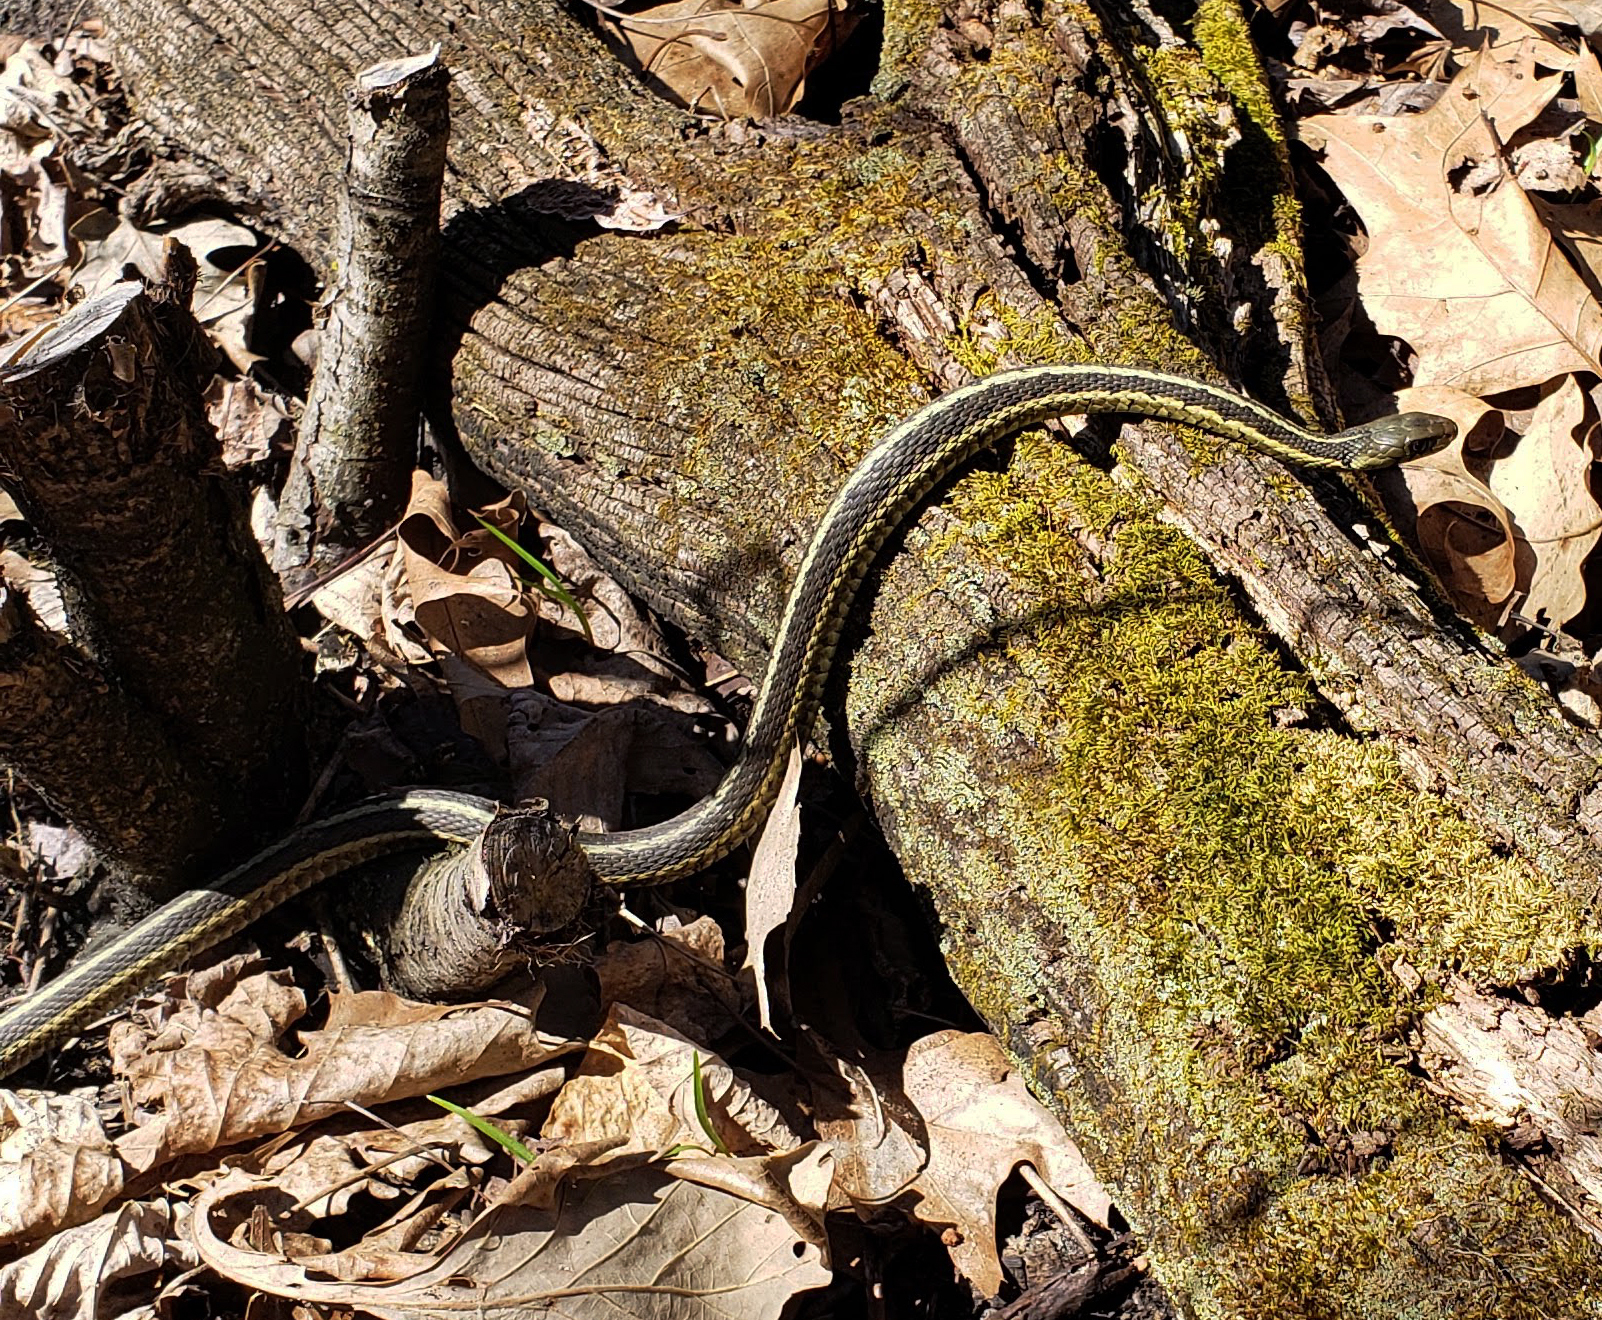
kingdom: Animalia
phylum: Chordata
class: Squamata
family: Colubridae
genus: Thamnophis
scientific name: Thamnophis sirtalis
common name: Common garter snake
